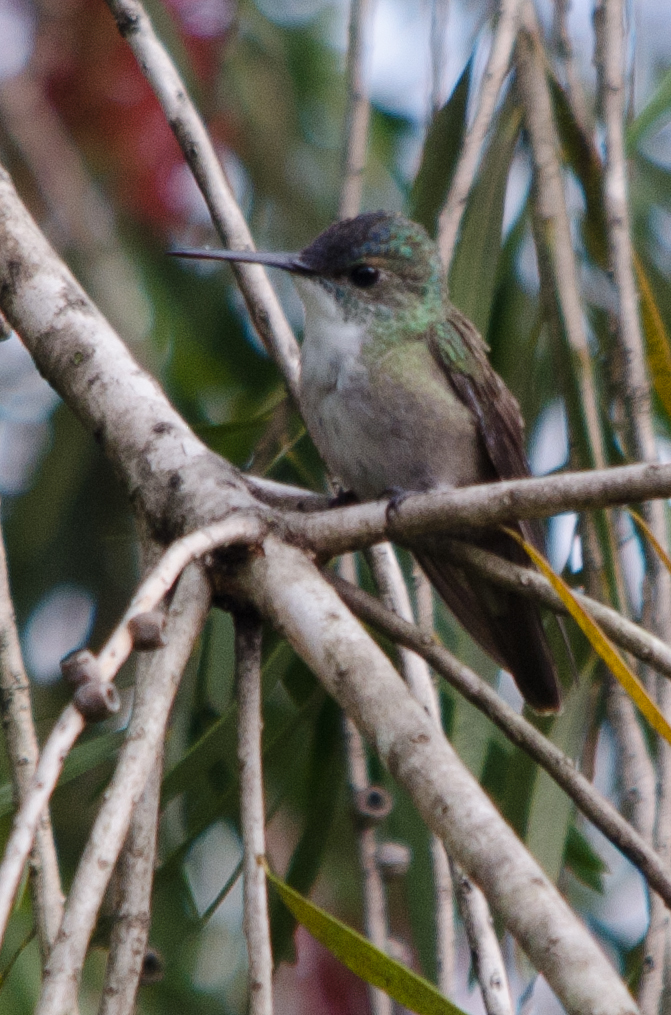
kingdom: Animalia
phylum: Chordata
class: Aves
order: Apodiformes
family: Trochilidae
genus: Saucerottia
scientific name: Saucerottia cyanocephala
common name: Azure-crowned hummingbird
